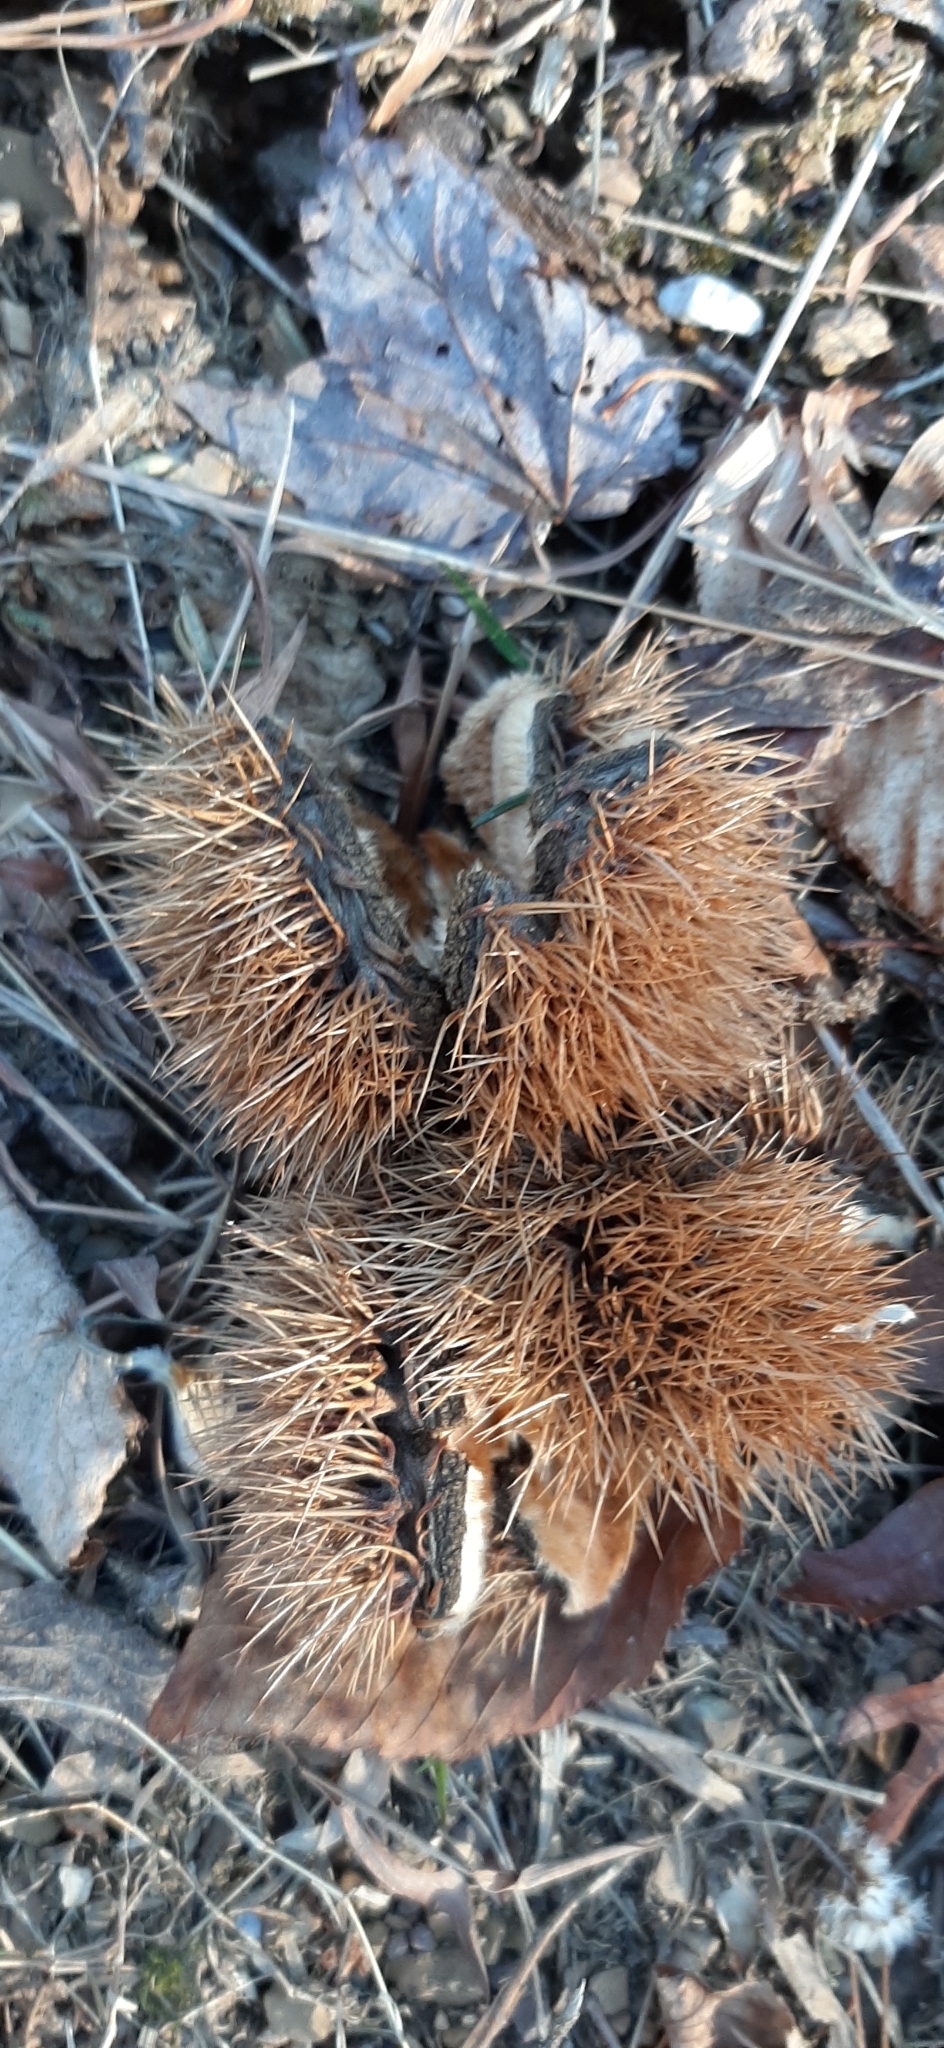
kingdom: Plantae
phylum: Tracheophyta
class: Magnoliopsida
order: Fagales
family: Fagaceae
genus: Castanea
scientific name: Castanea dentata
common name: American chestnut
